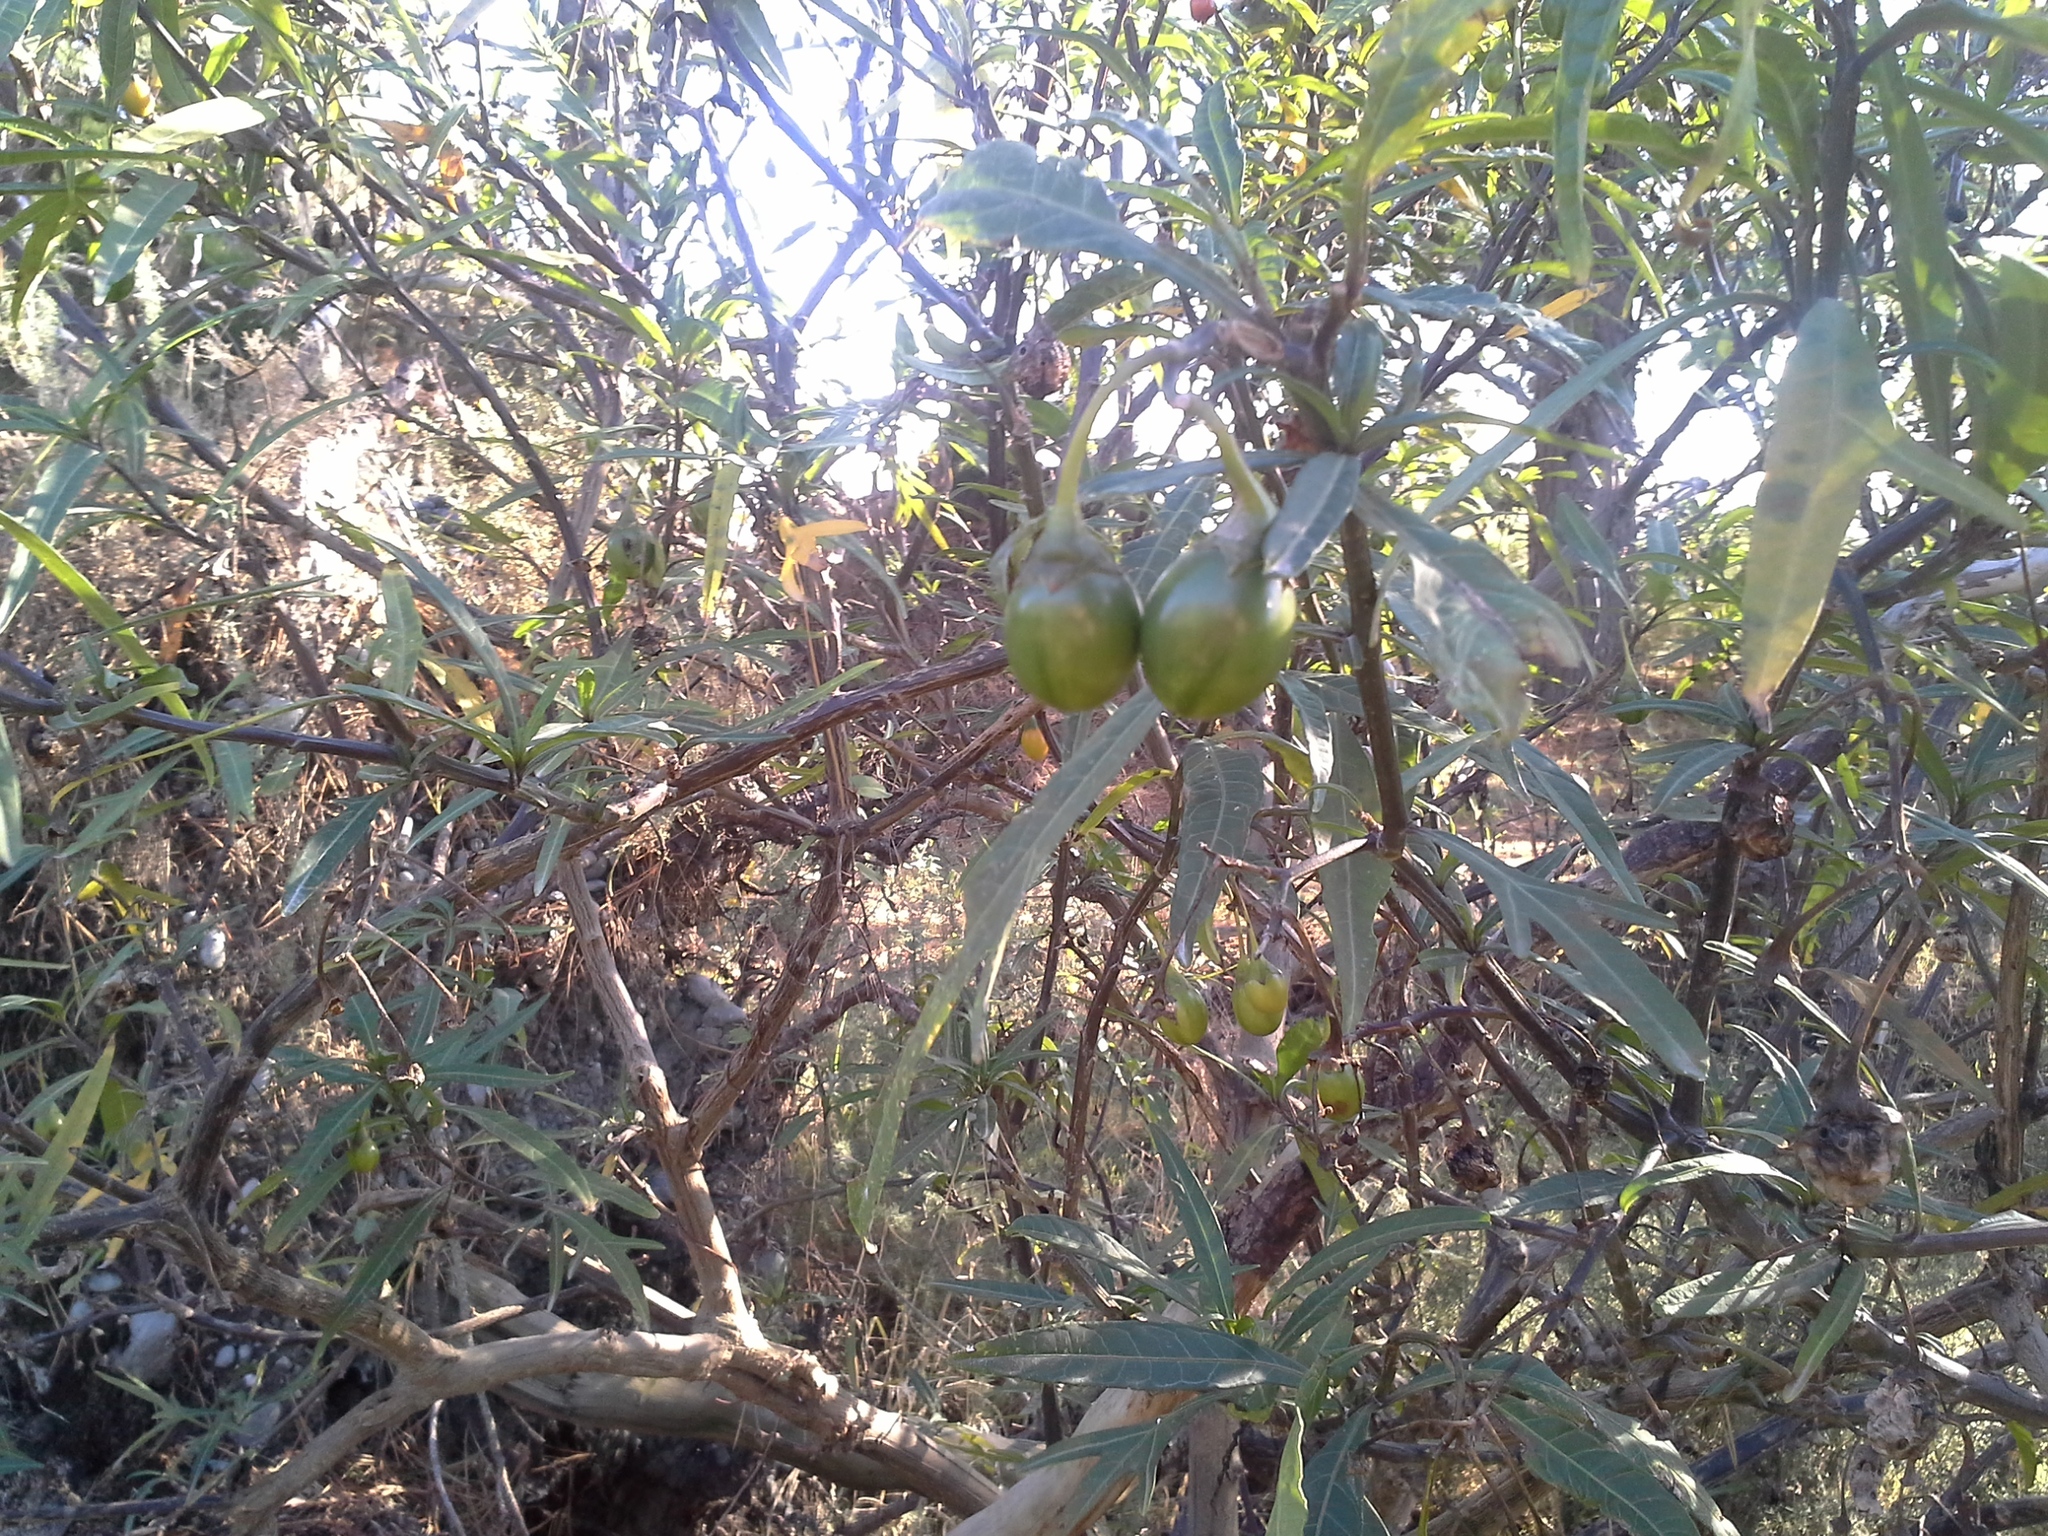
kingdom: Plantae
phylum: Tracheophyta
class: Magnoliopsida
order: Solanales
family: Solanaceae
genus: Solanum
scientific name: Solanum laciniatum
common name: Kangaroo-apple
